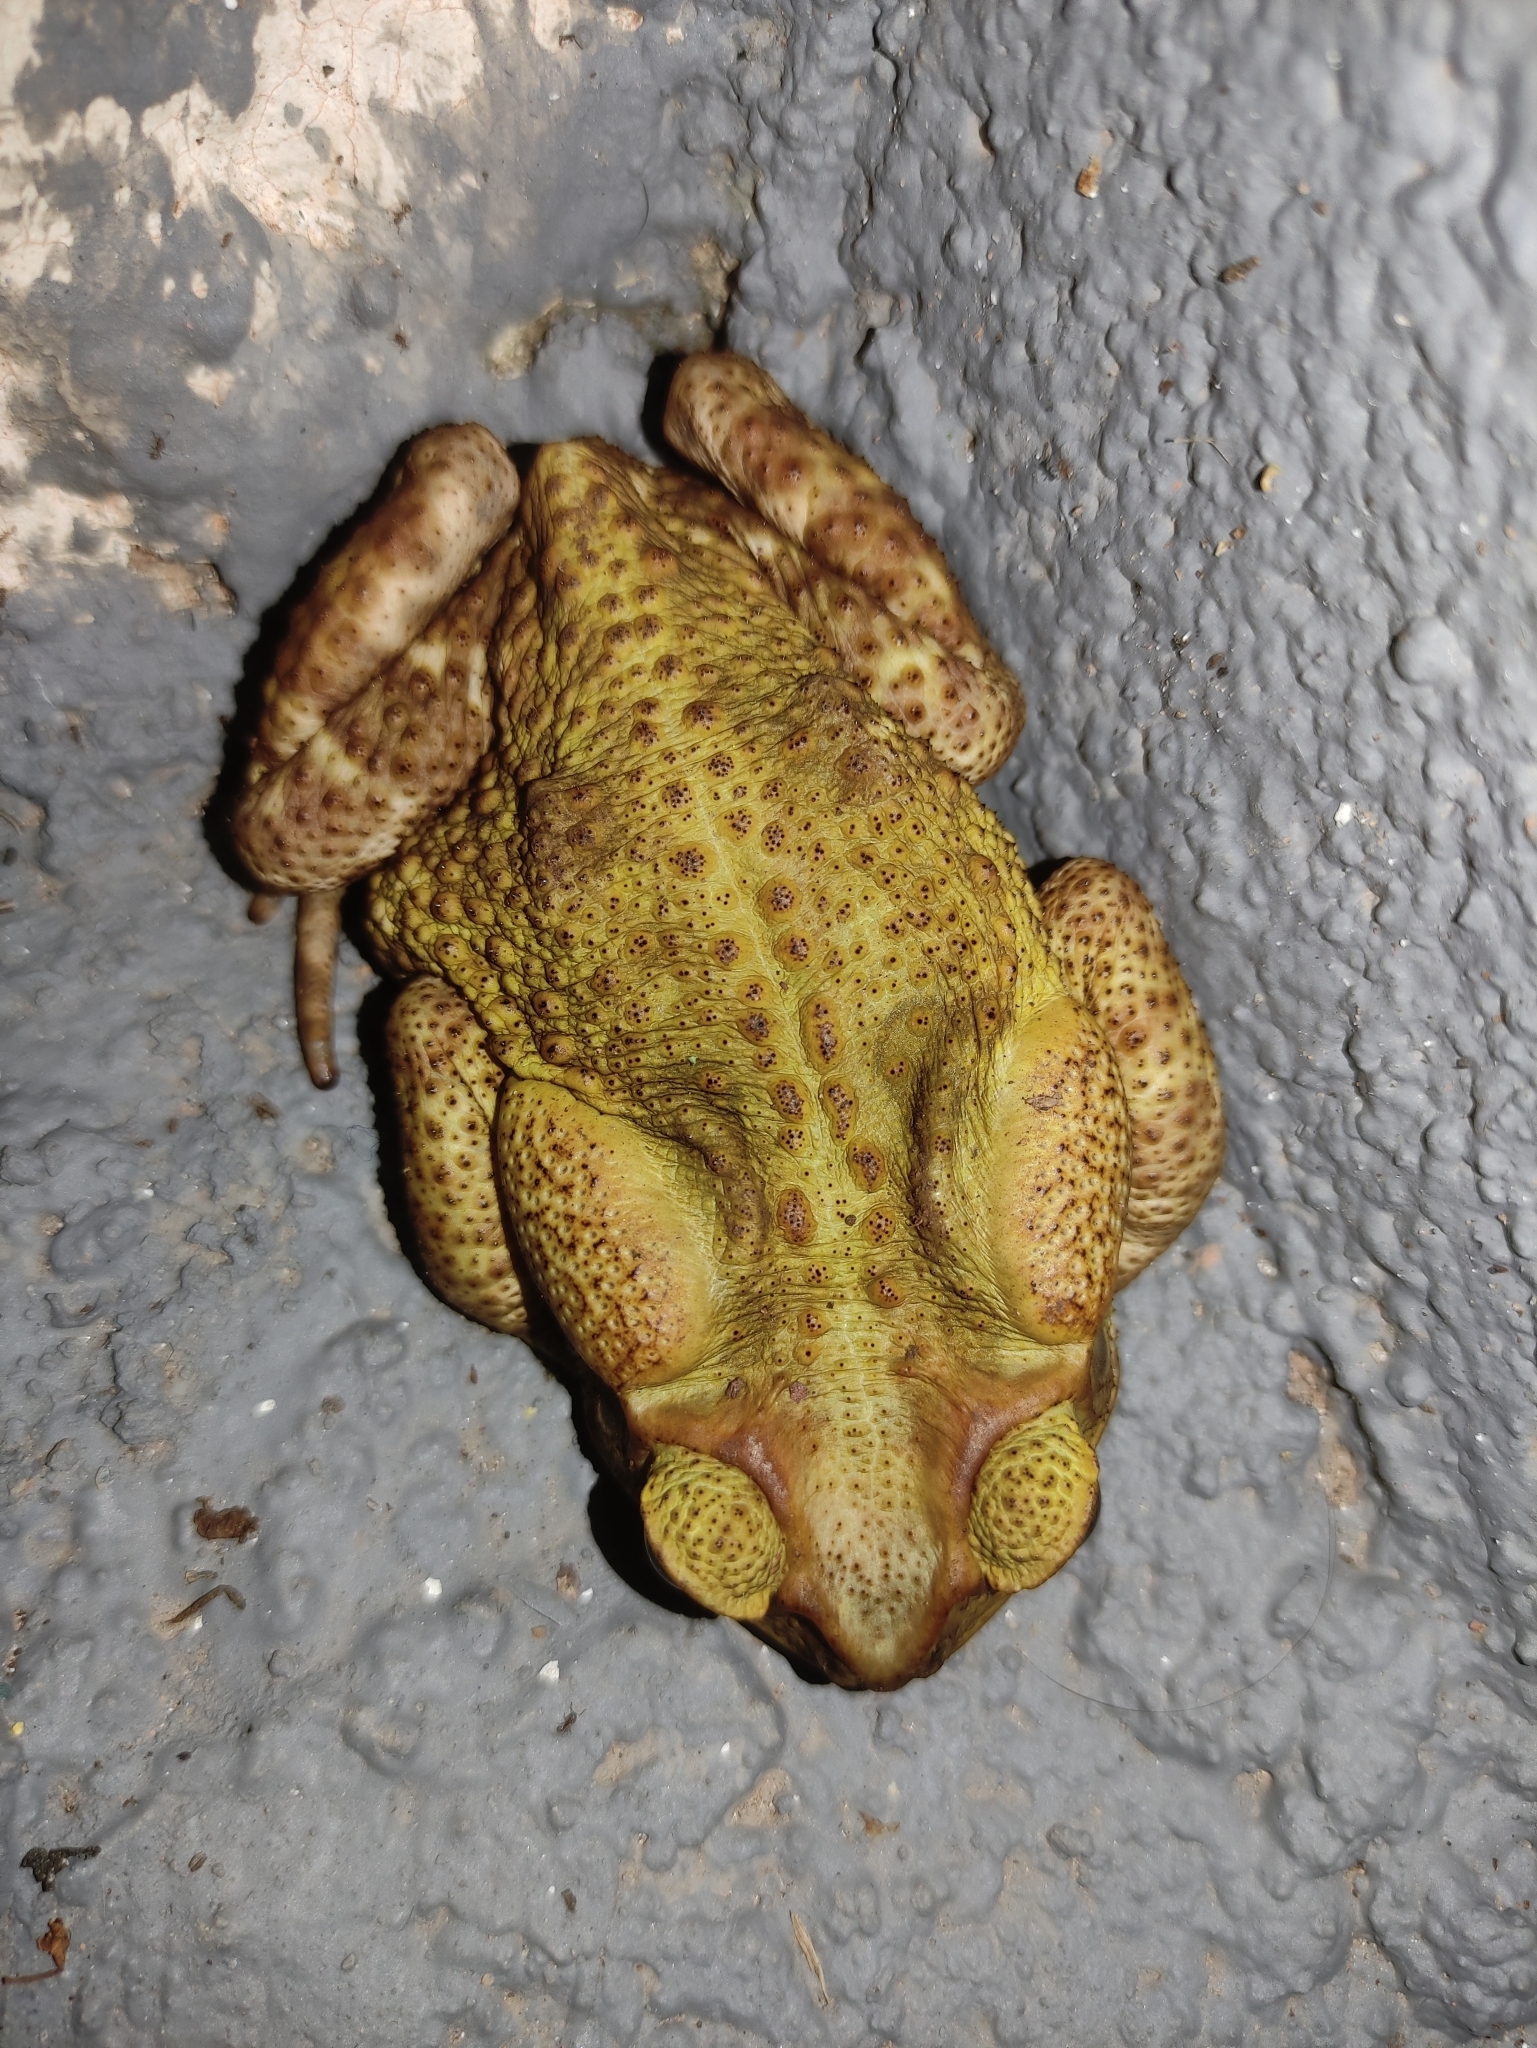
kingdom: Animalia
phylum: Chordata
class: Amphibia
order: Anura
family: Bufonidae
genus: Rhinella
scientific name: Rhinella icterica
